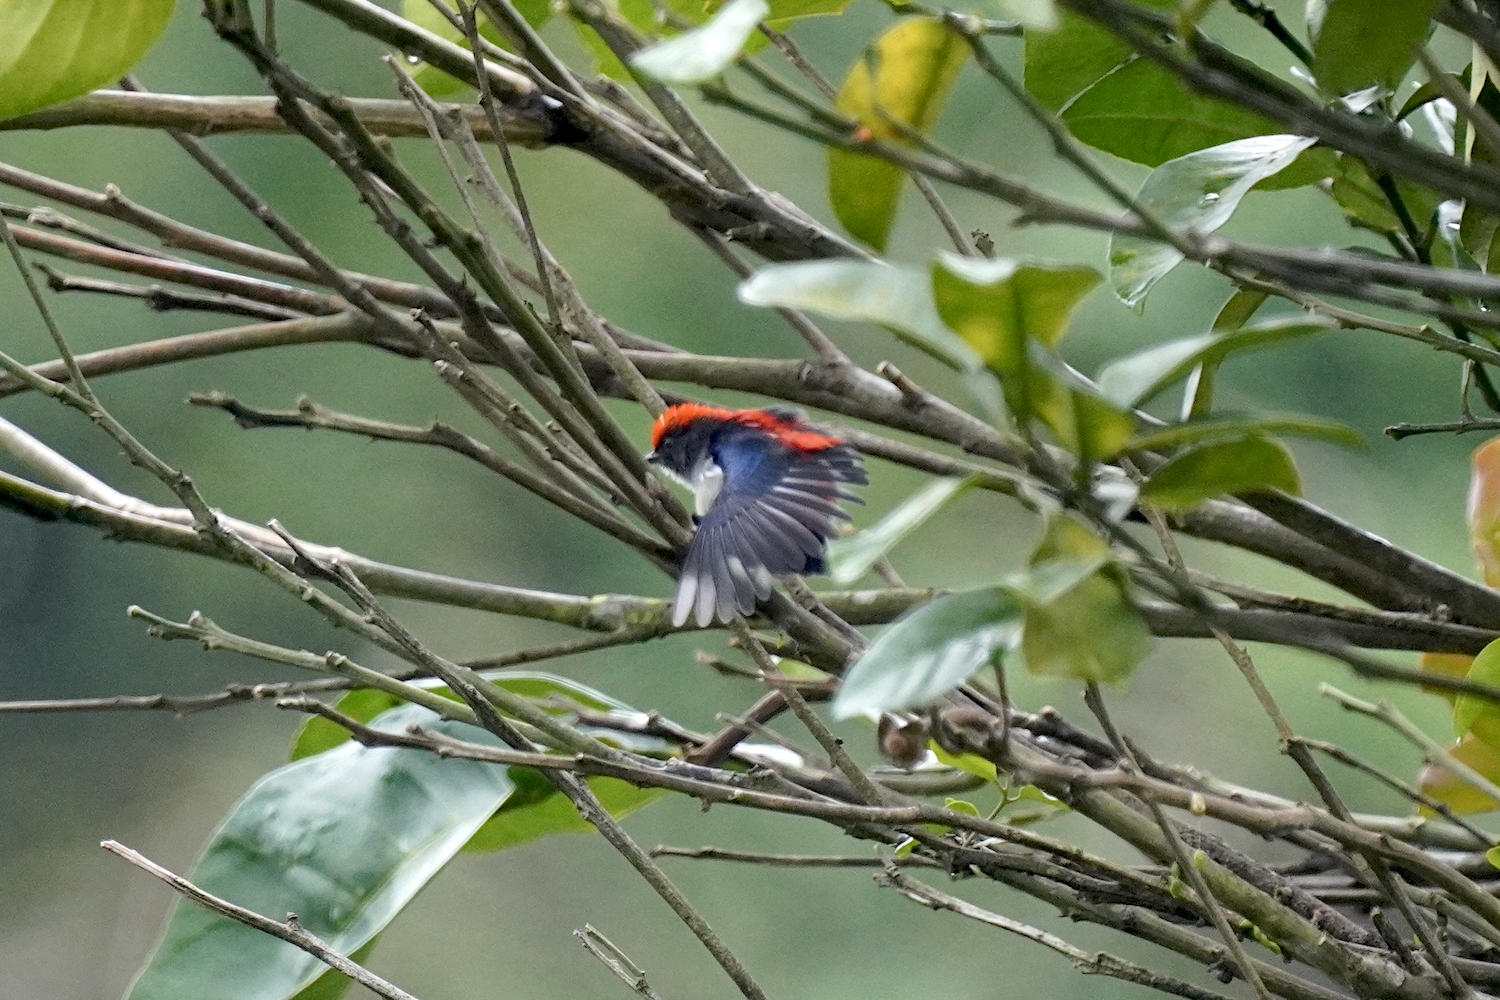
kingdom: Animalia
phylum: Chordata
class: Aves
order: Passeriformes
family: Dicaeidae
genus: Dicaeum
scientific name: Dicaeum cruentatum
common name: Scarlet-backed flowerpecker
